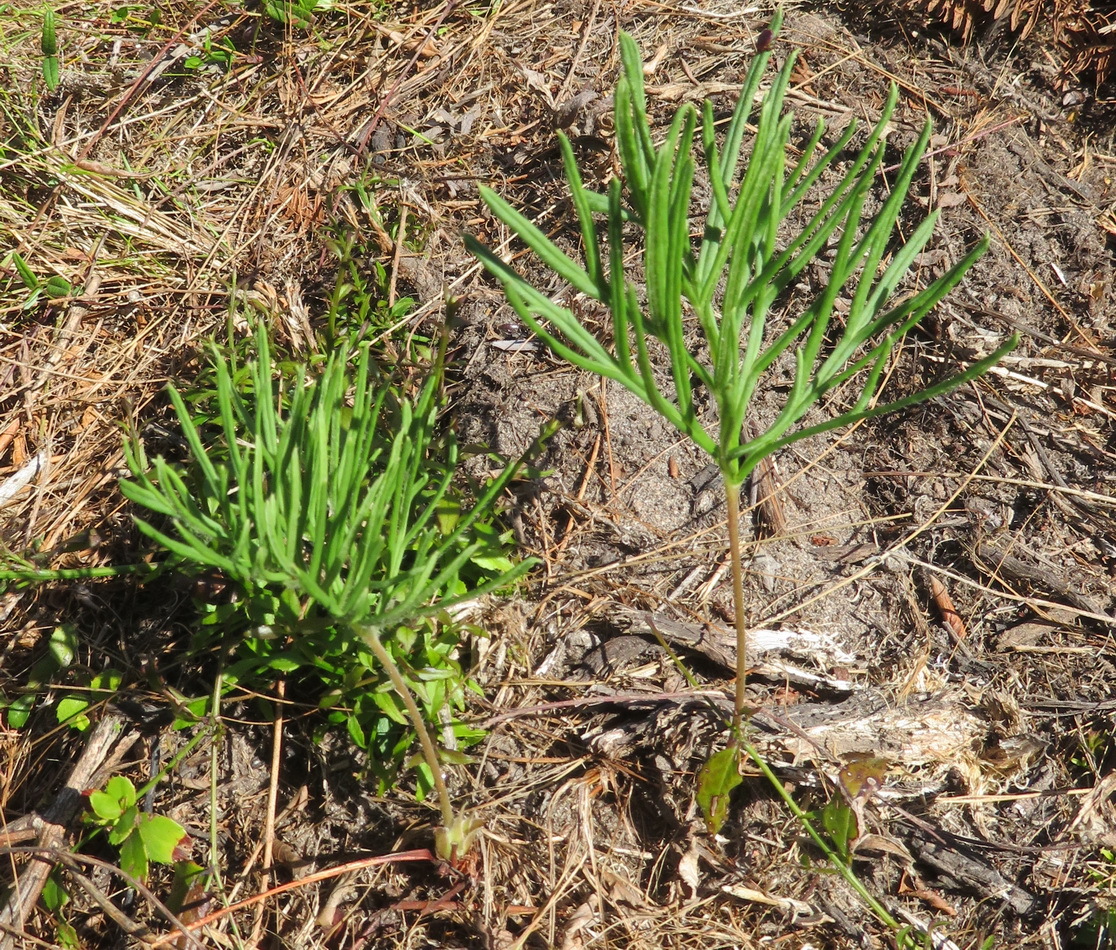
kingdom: Plantae
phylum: Tracheophyta
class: Magnoliopsida
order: Geraniales
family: Geraniaceae
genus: Pelargonium
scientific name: Pelargonium caffrum
